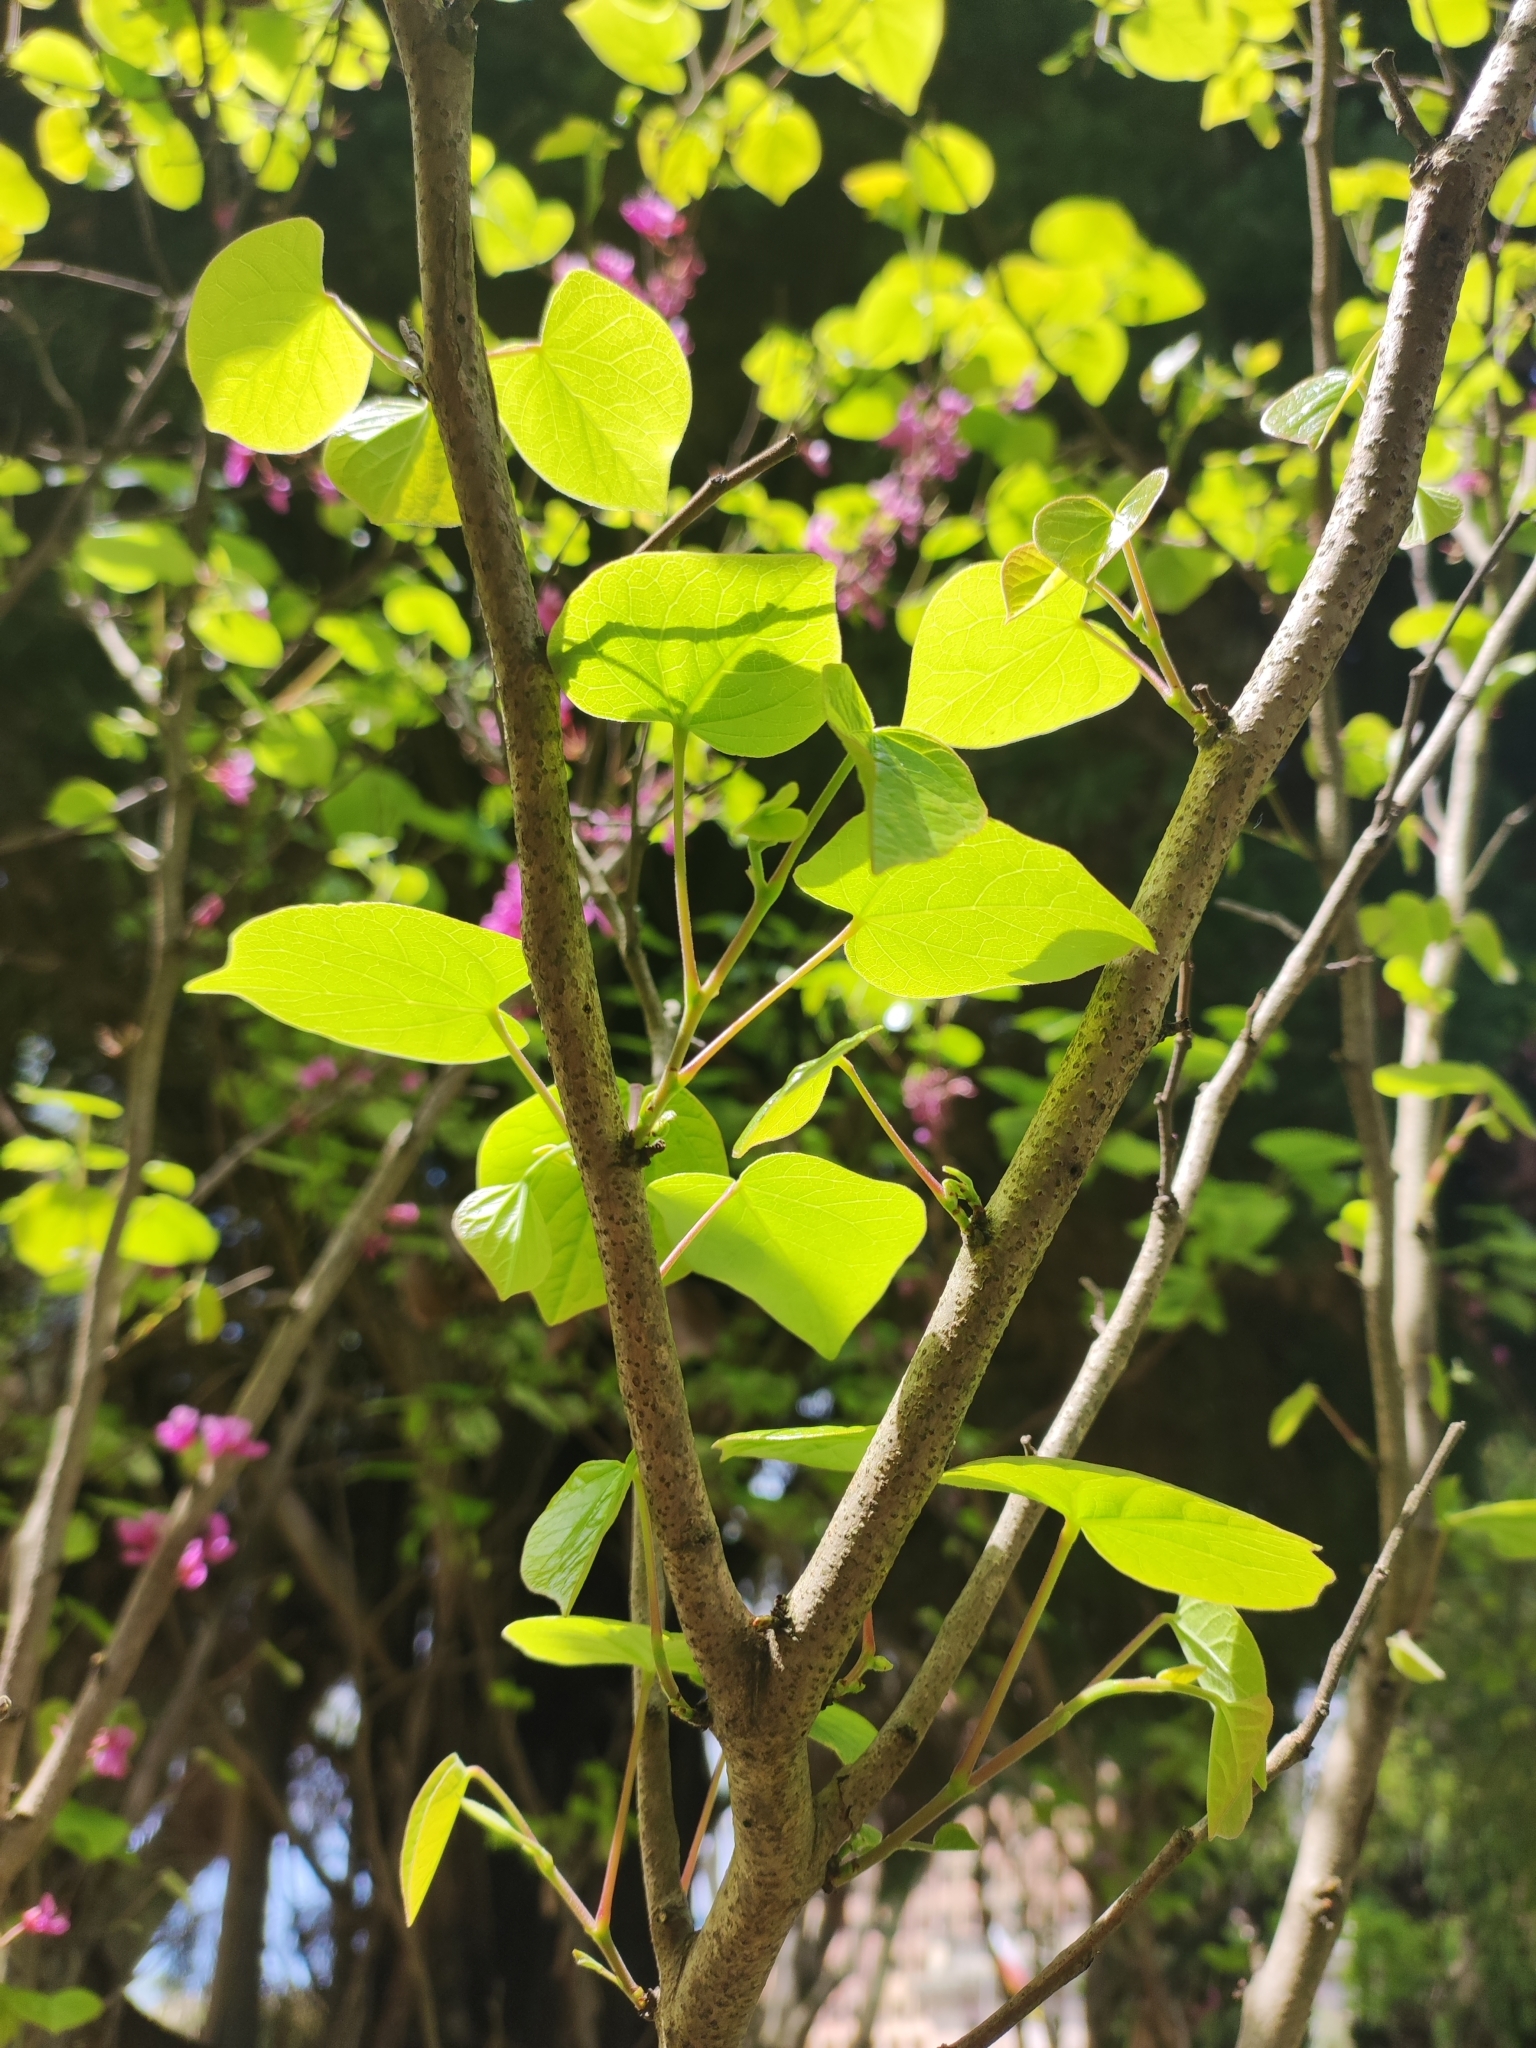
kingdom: Plantae
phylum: Tracheophyta
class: Magnoliopsida
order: Fabales
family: Fabaceae
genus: Cercis
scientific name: Cercis siliquastrum
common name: Judas tree
